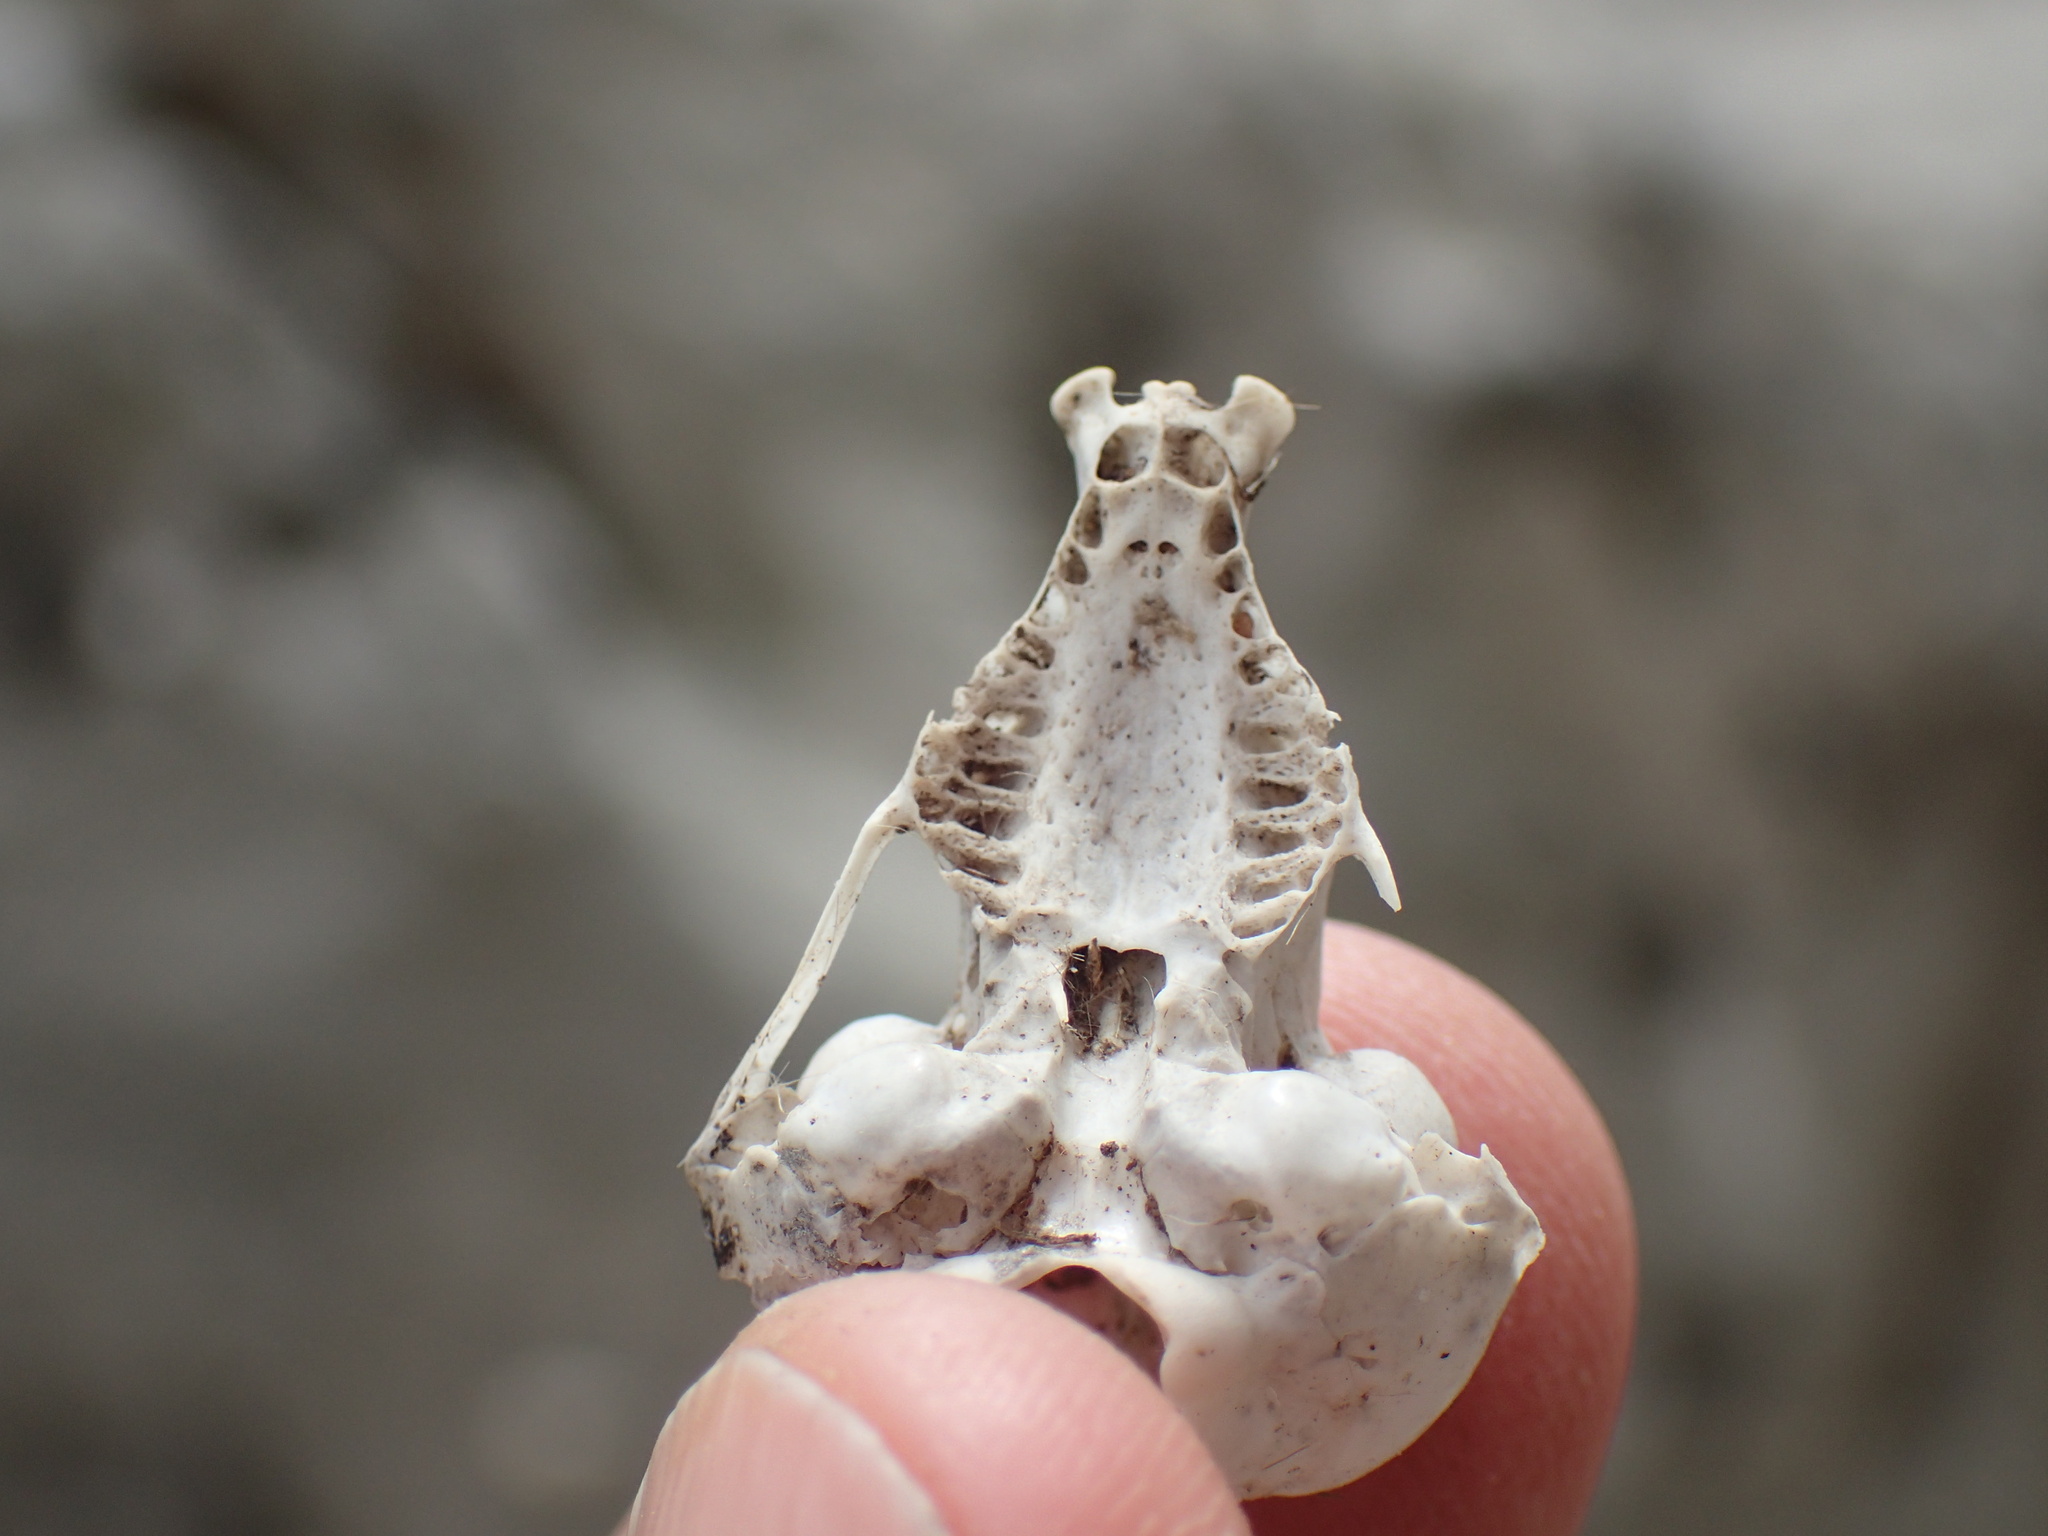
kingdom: Animalia
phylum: Chordata
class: Mammalia
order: Afrosoricida
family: Chrysochloridae
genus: Chrysochloris
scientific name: Chrysochloris asiatica
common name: Cape golden mole
